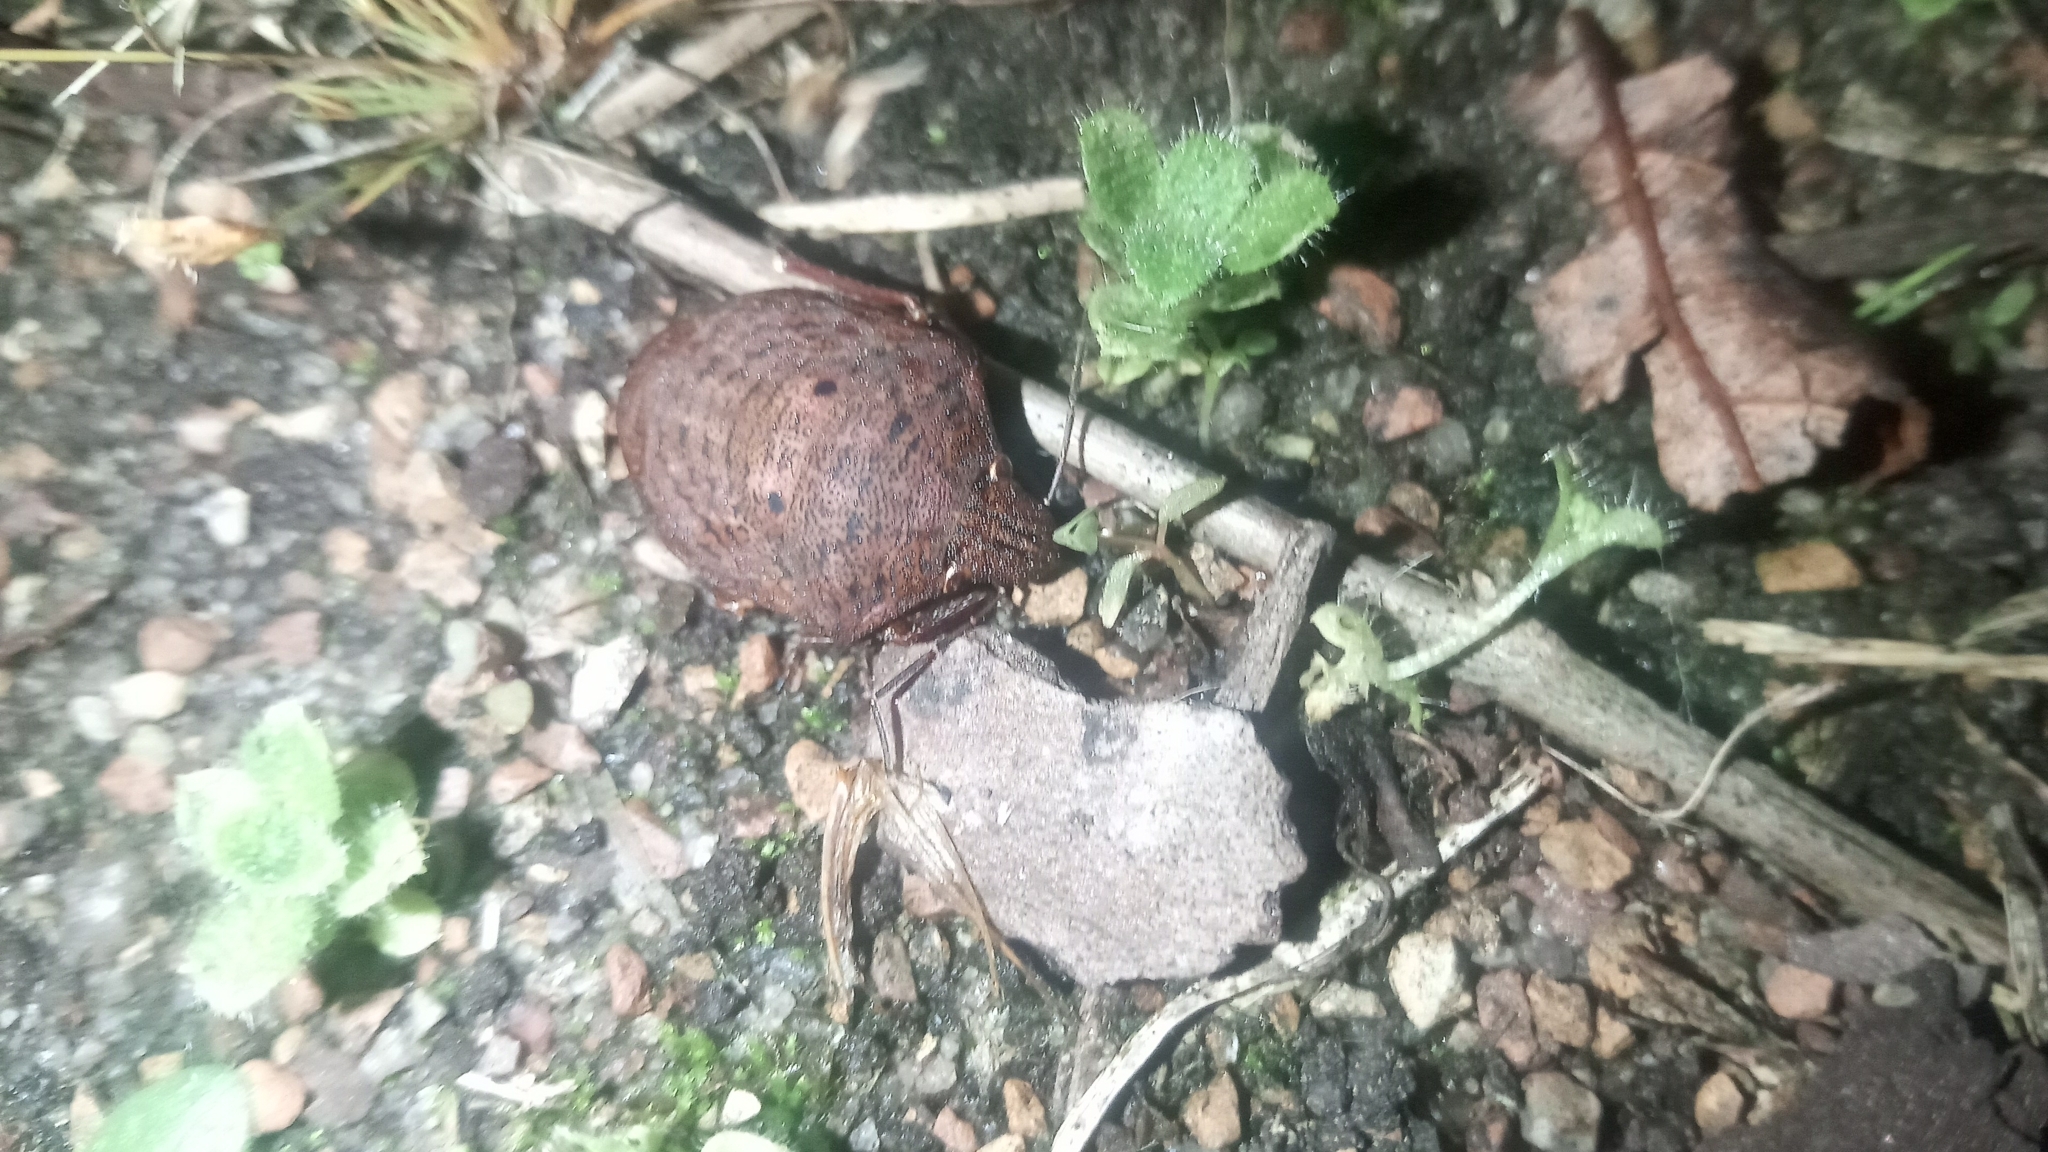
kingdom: Animalia
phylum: Arthropoda
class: Insecta
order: Hemiptera
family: Scutelleridae
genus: Tetyra
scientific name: Tetyra bipunctata
